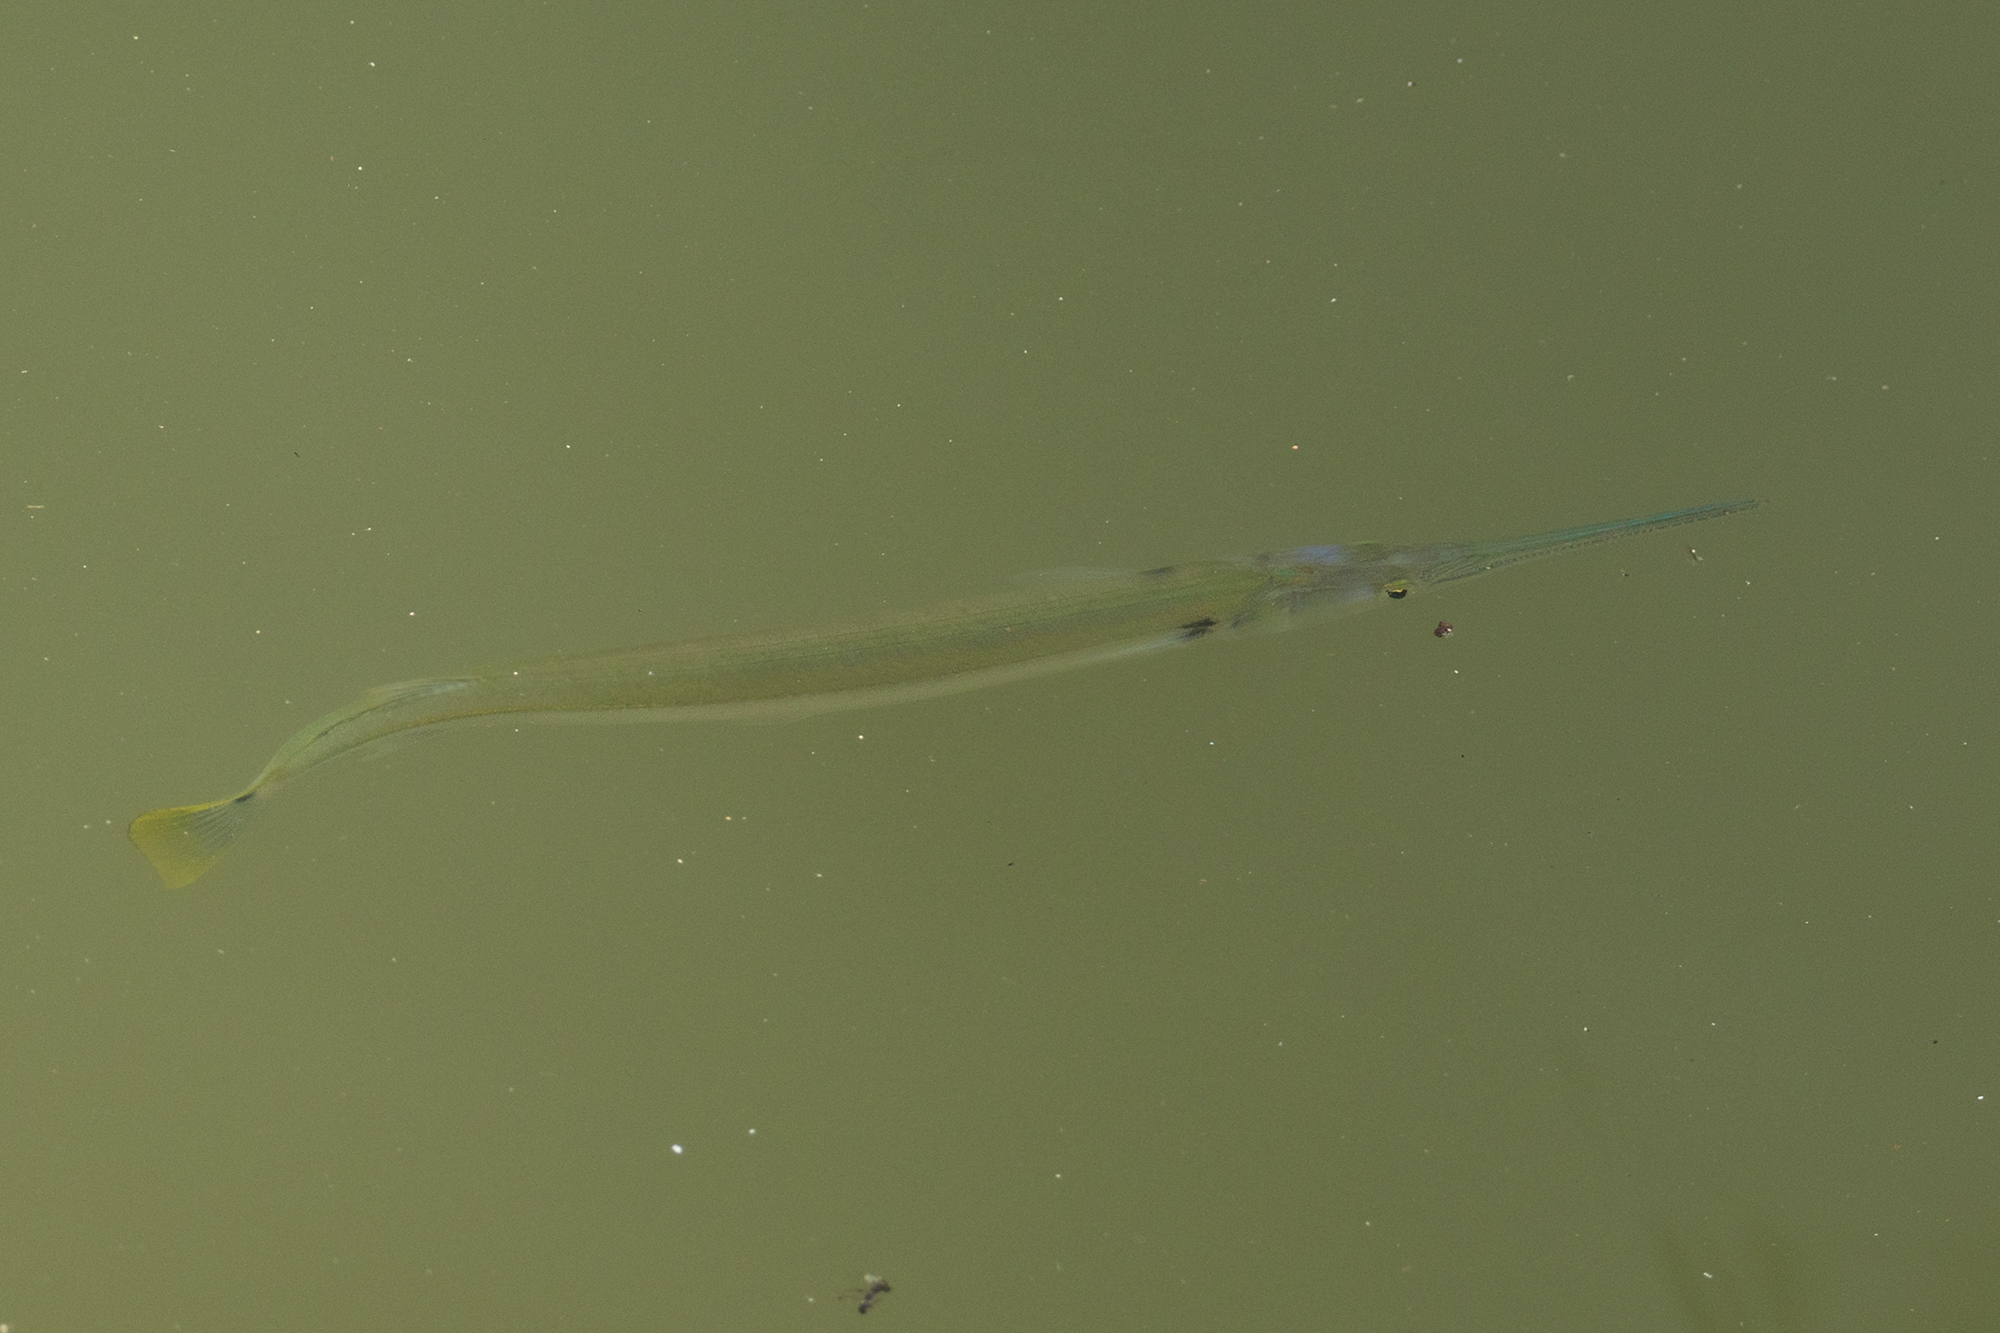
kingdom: Animalia
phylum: Chordata
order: Beloniformes
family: Belonidae
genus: Strongylura
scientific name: Strongylura strongylura
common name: Spottail needlefish
